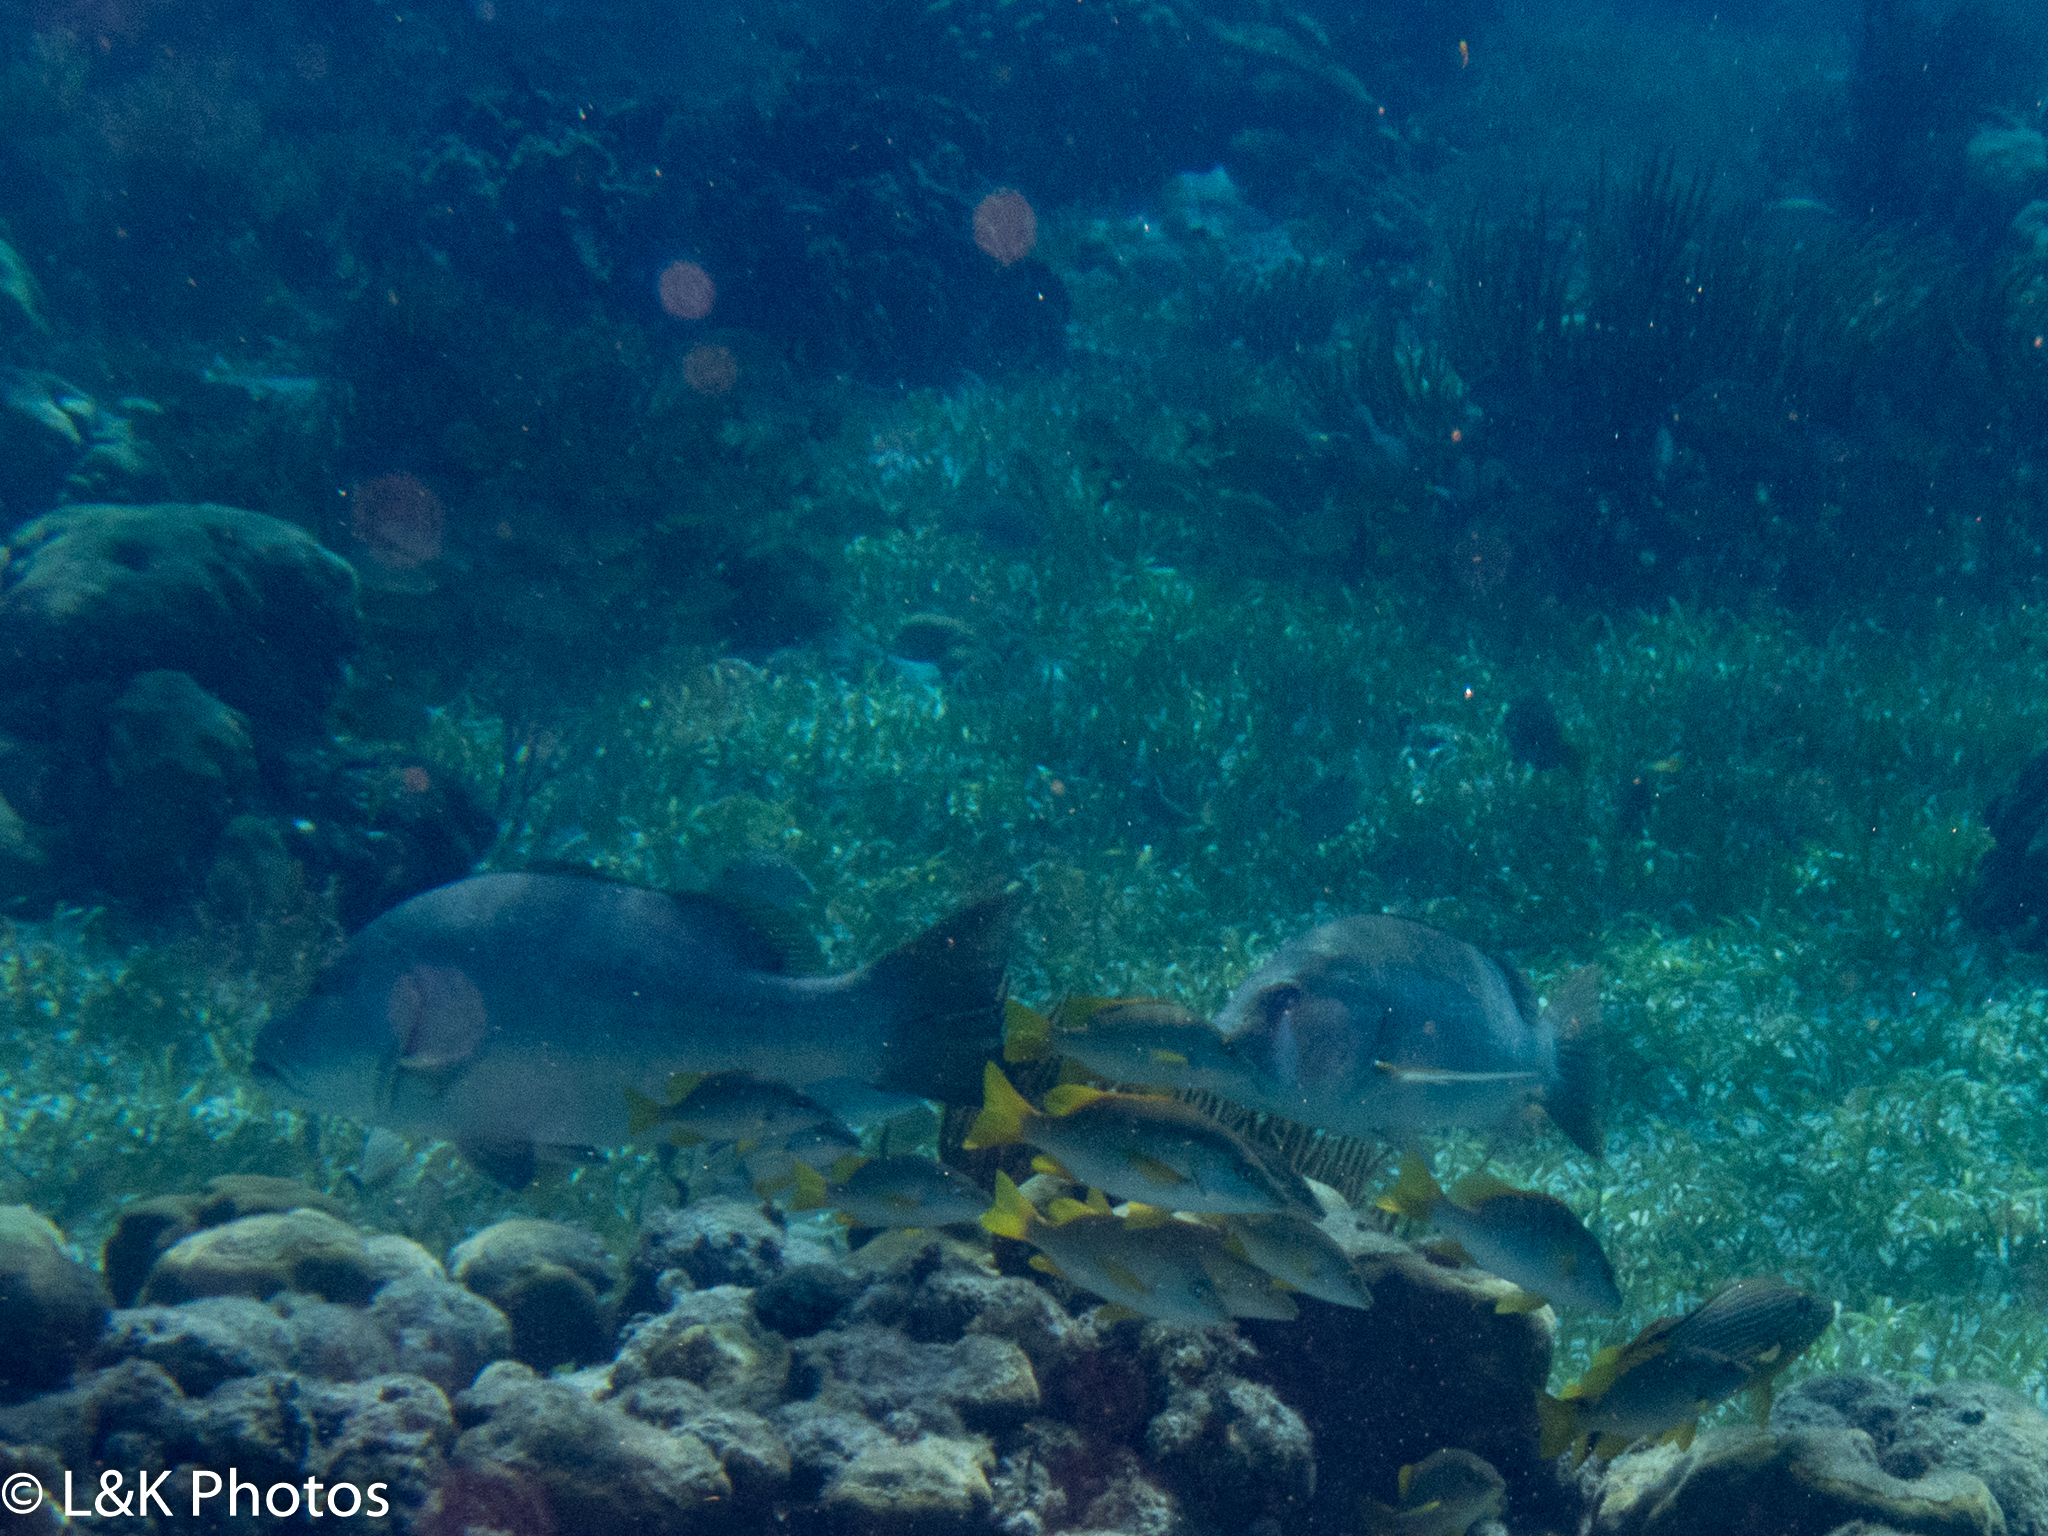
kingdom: Animalia
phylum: Chordata
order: Perciformes
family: Lutjanidae
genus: Lutjanus
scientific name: Lutjanus jocu
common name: Dog snapper
